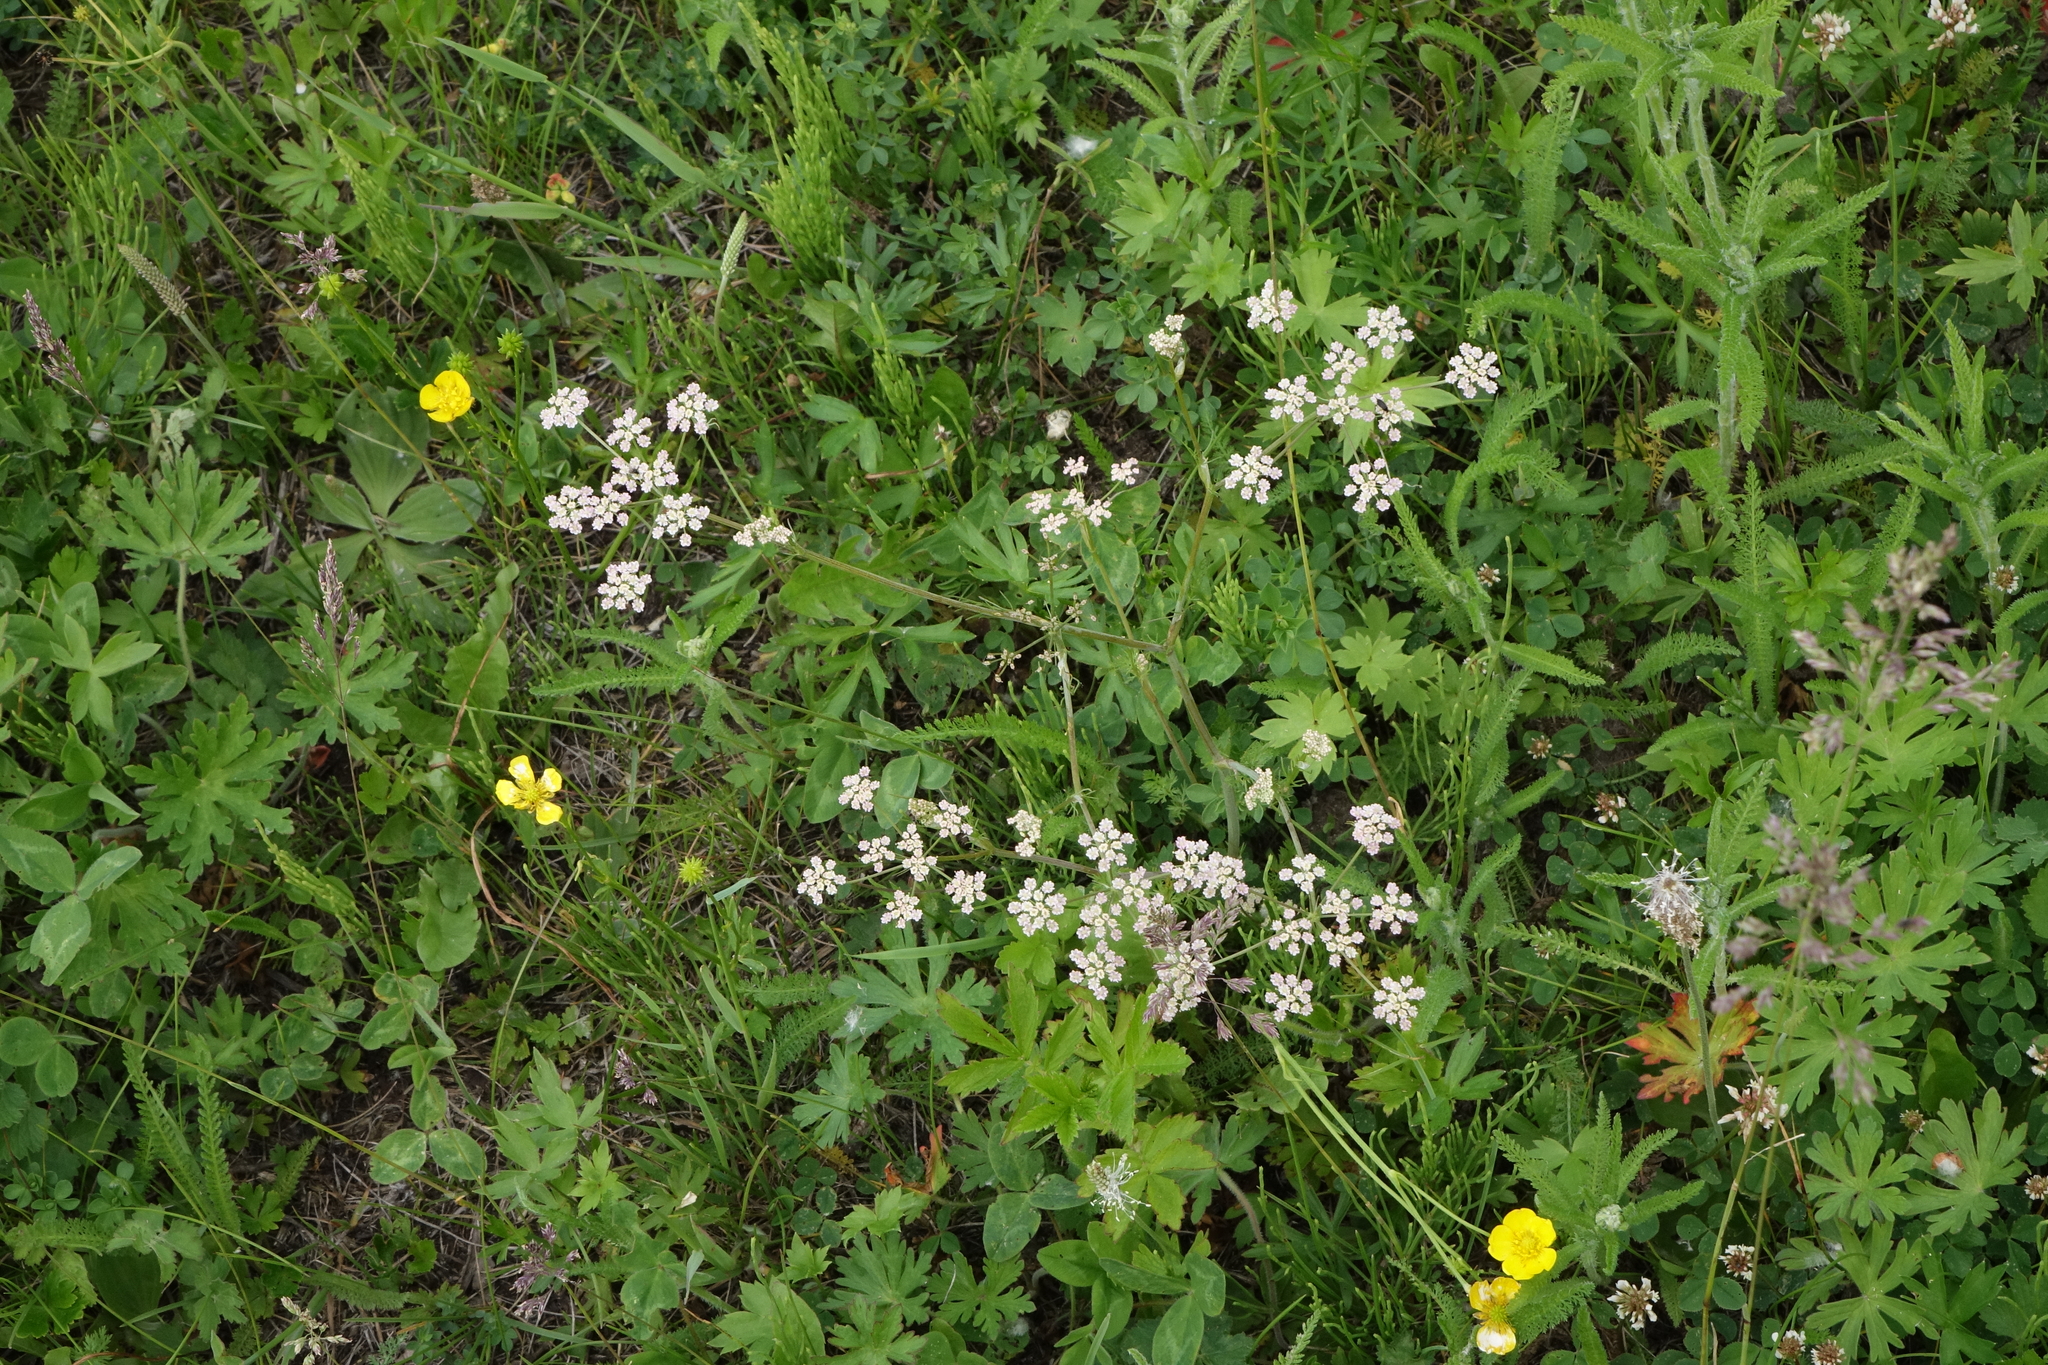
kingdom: Plantae
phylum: Tracheophyta
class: Magnoliopsida
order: Apiales
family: Apiaceae
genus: Carum
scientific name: Carum carvi
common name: Caraway
